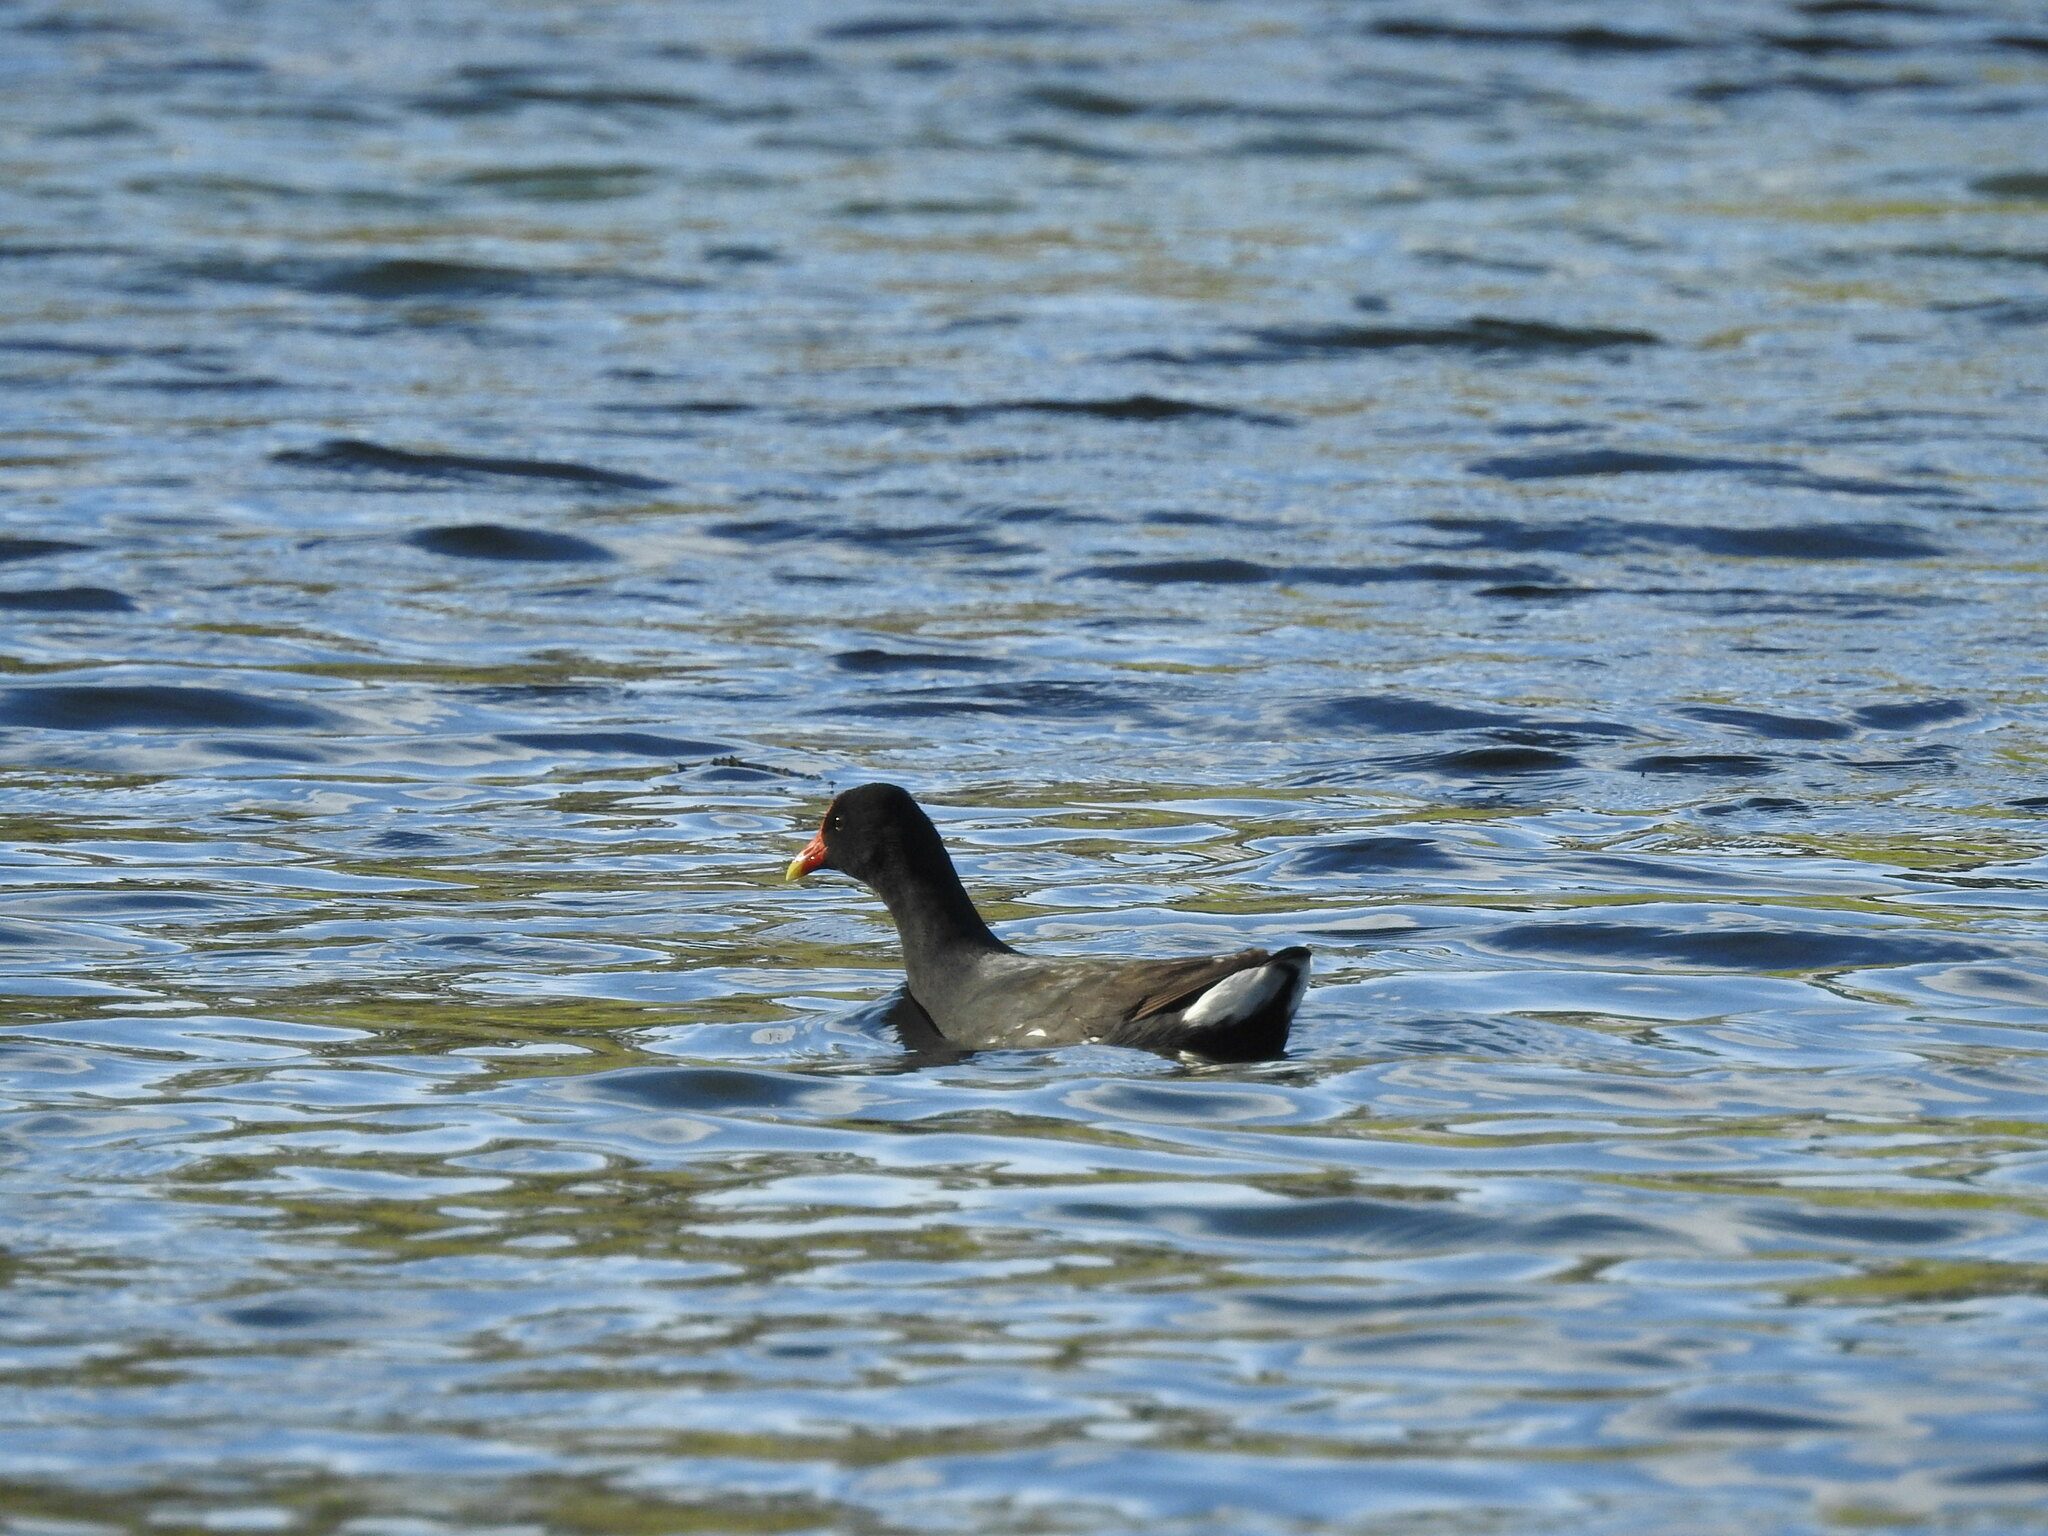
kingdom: Animalia
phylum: Chordata
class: Aves
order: Gruiformes
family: Rallidae
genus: Gallinula
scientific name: Gallinula chloropus
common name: Common moorhen
